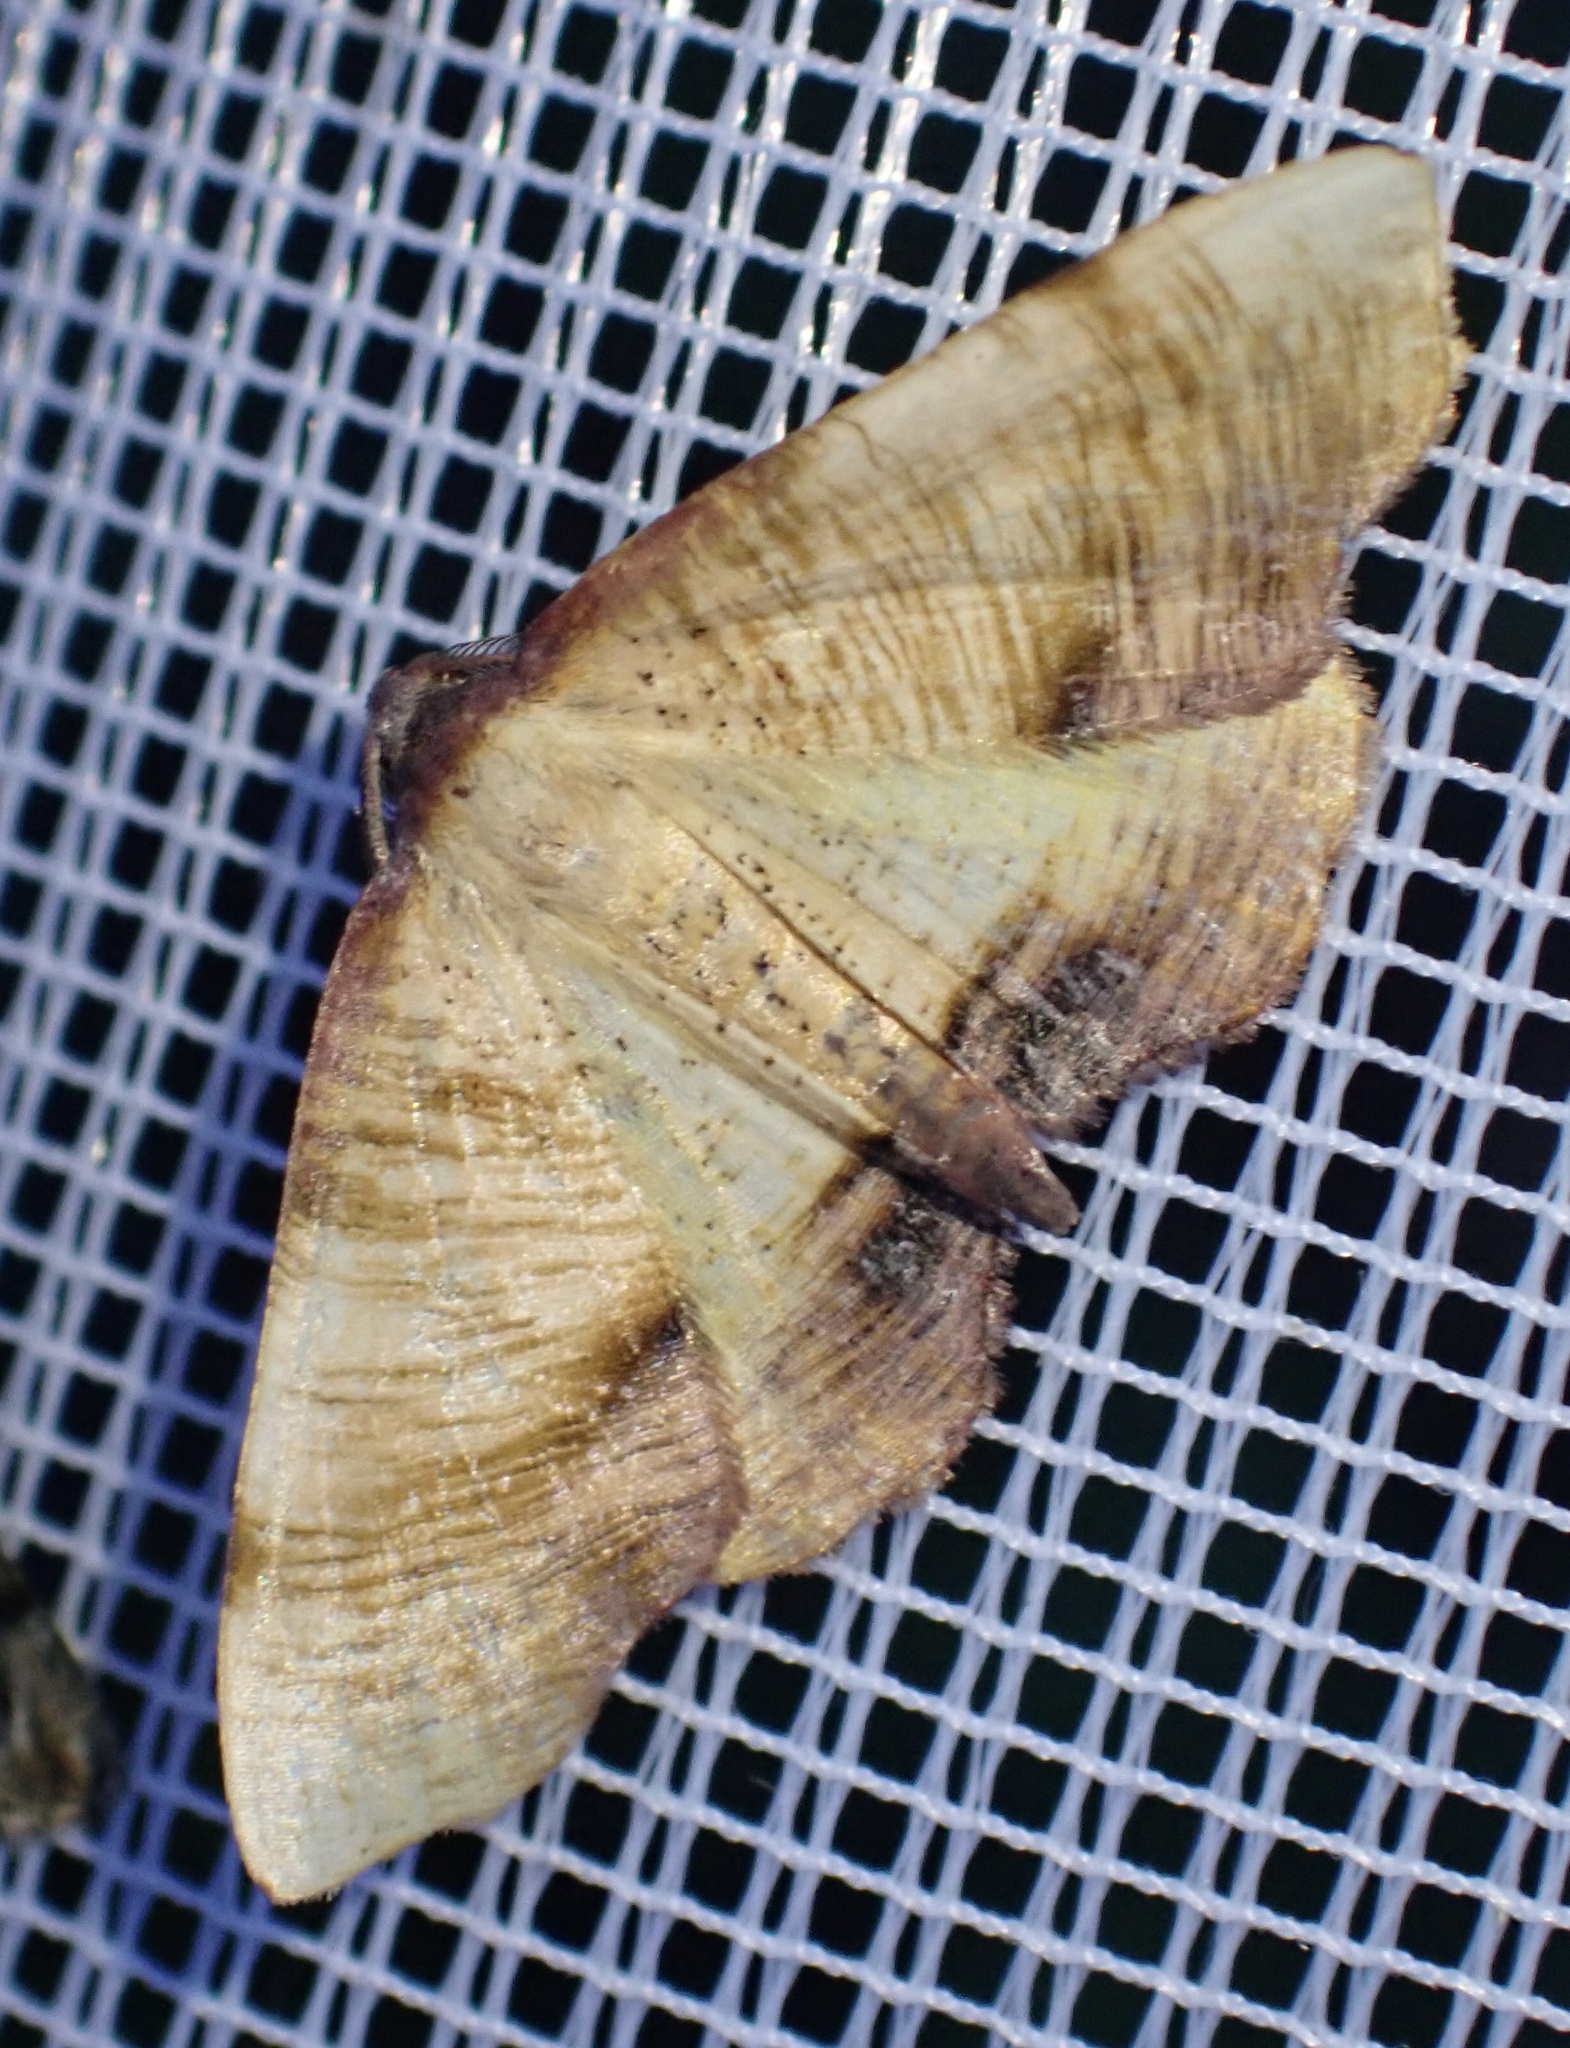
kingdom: Animalia
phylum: Arthropoda
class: Insecta
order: Lepidoptera
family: Geometridae
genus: Plagodis
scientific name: Plagodis dolabraria
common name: Scorched wing
